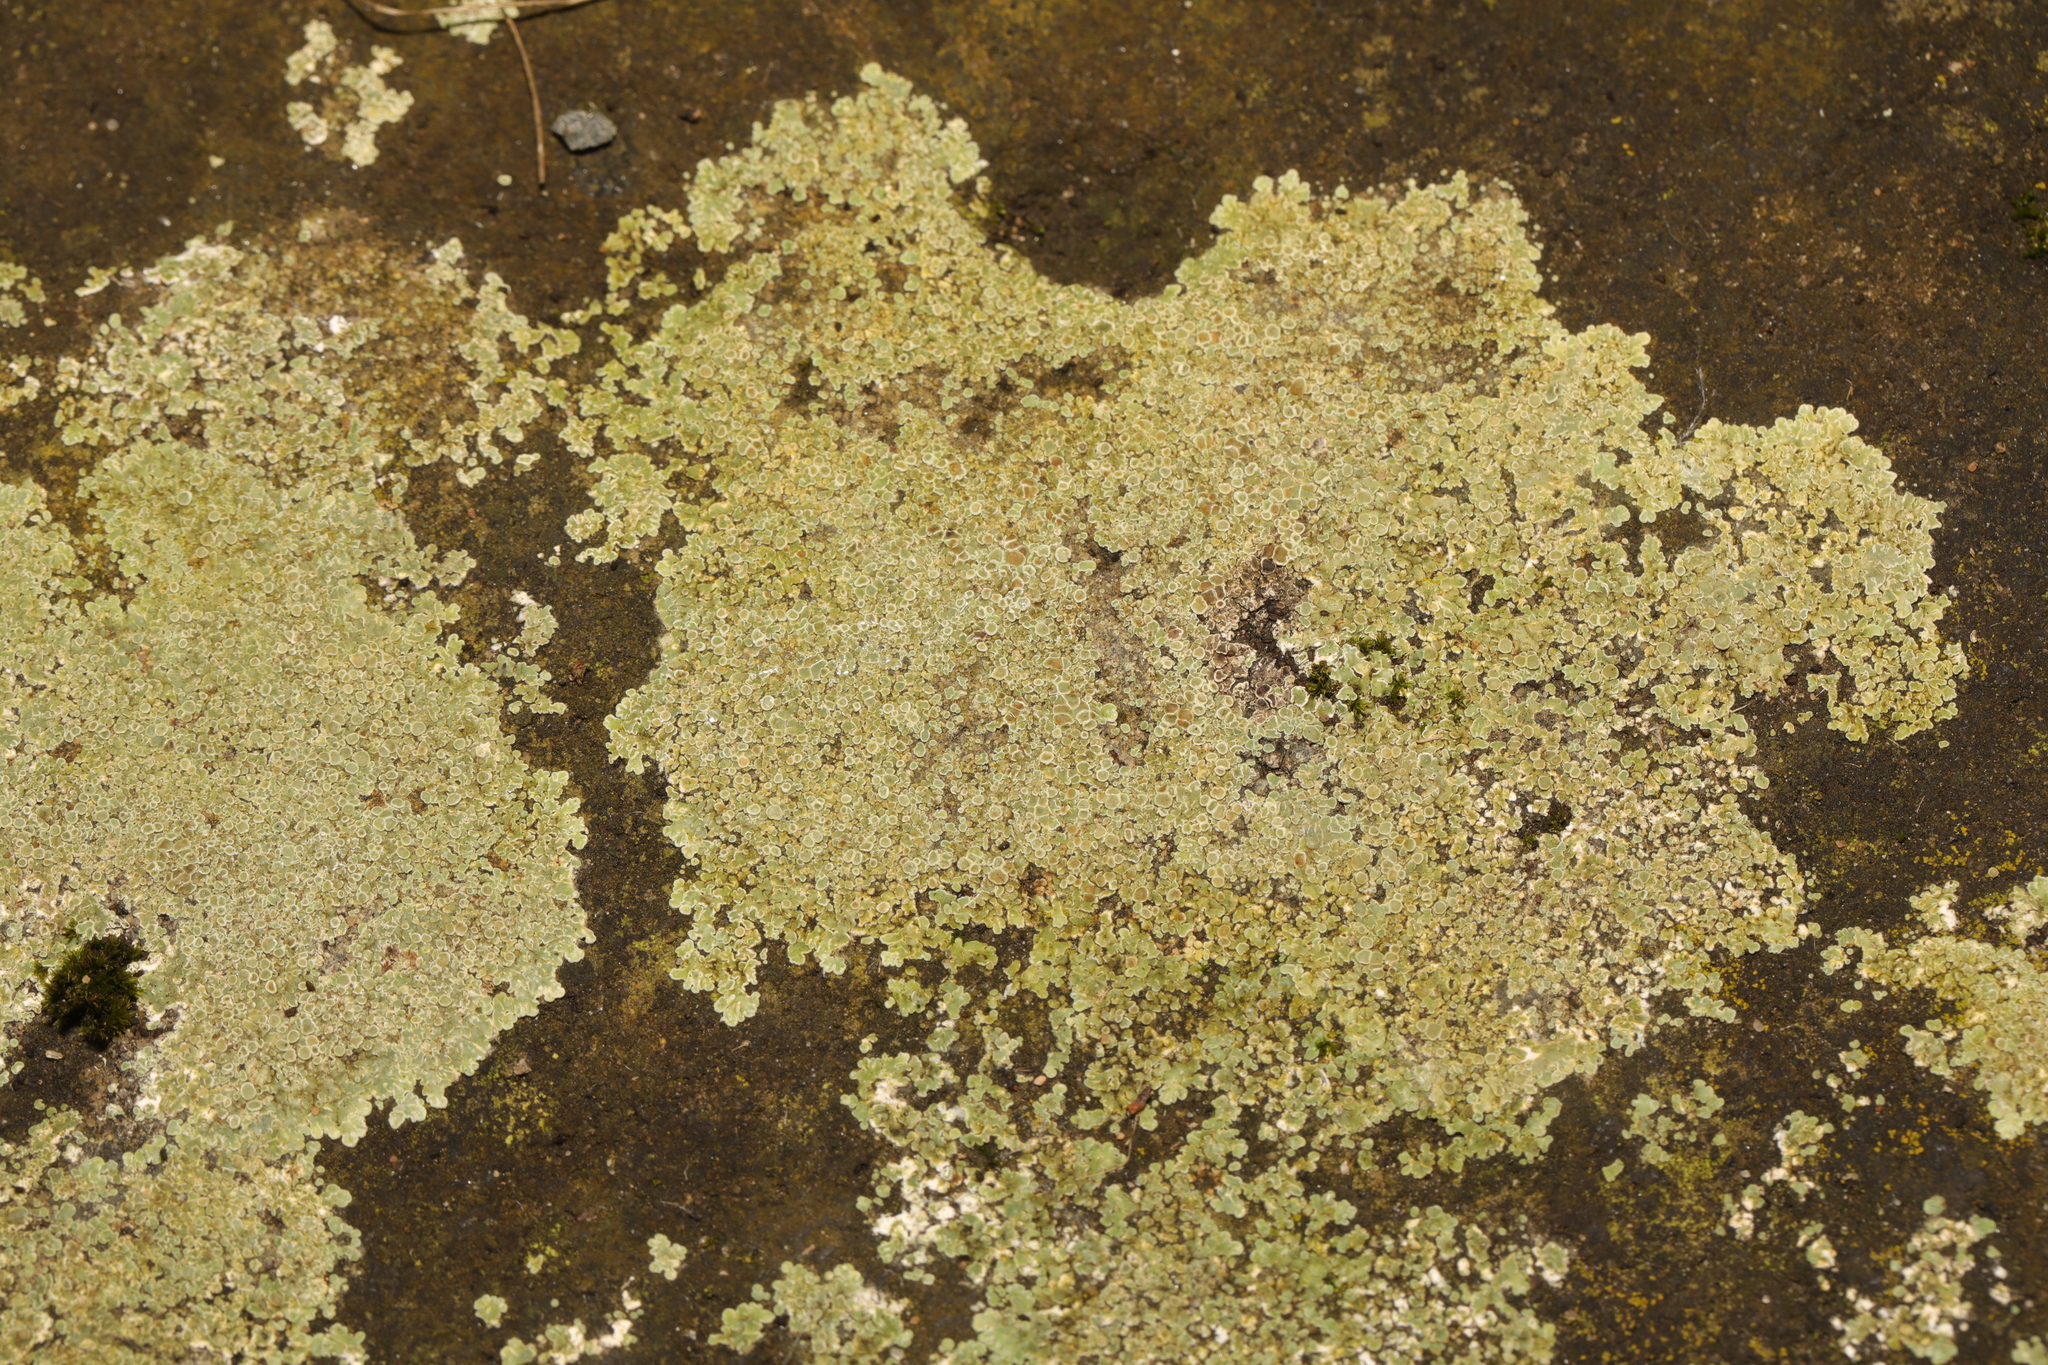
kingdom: Fungi
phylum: Ascomycota
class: Lecanoromycetes
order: Lecanorales
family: Lecanoraceae
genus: Protoparmeliopsis
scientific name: Protoparmeliopsis muralis
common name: Stonewall rim lichen
